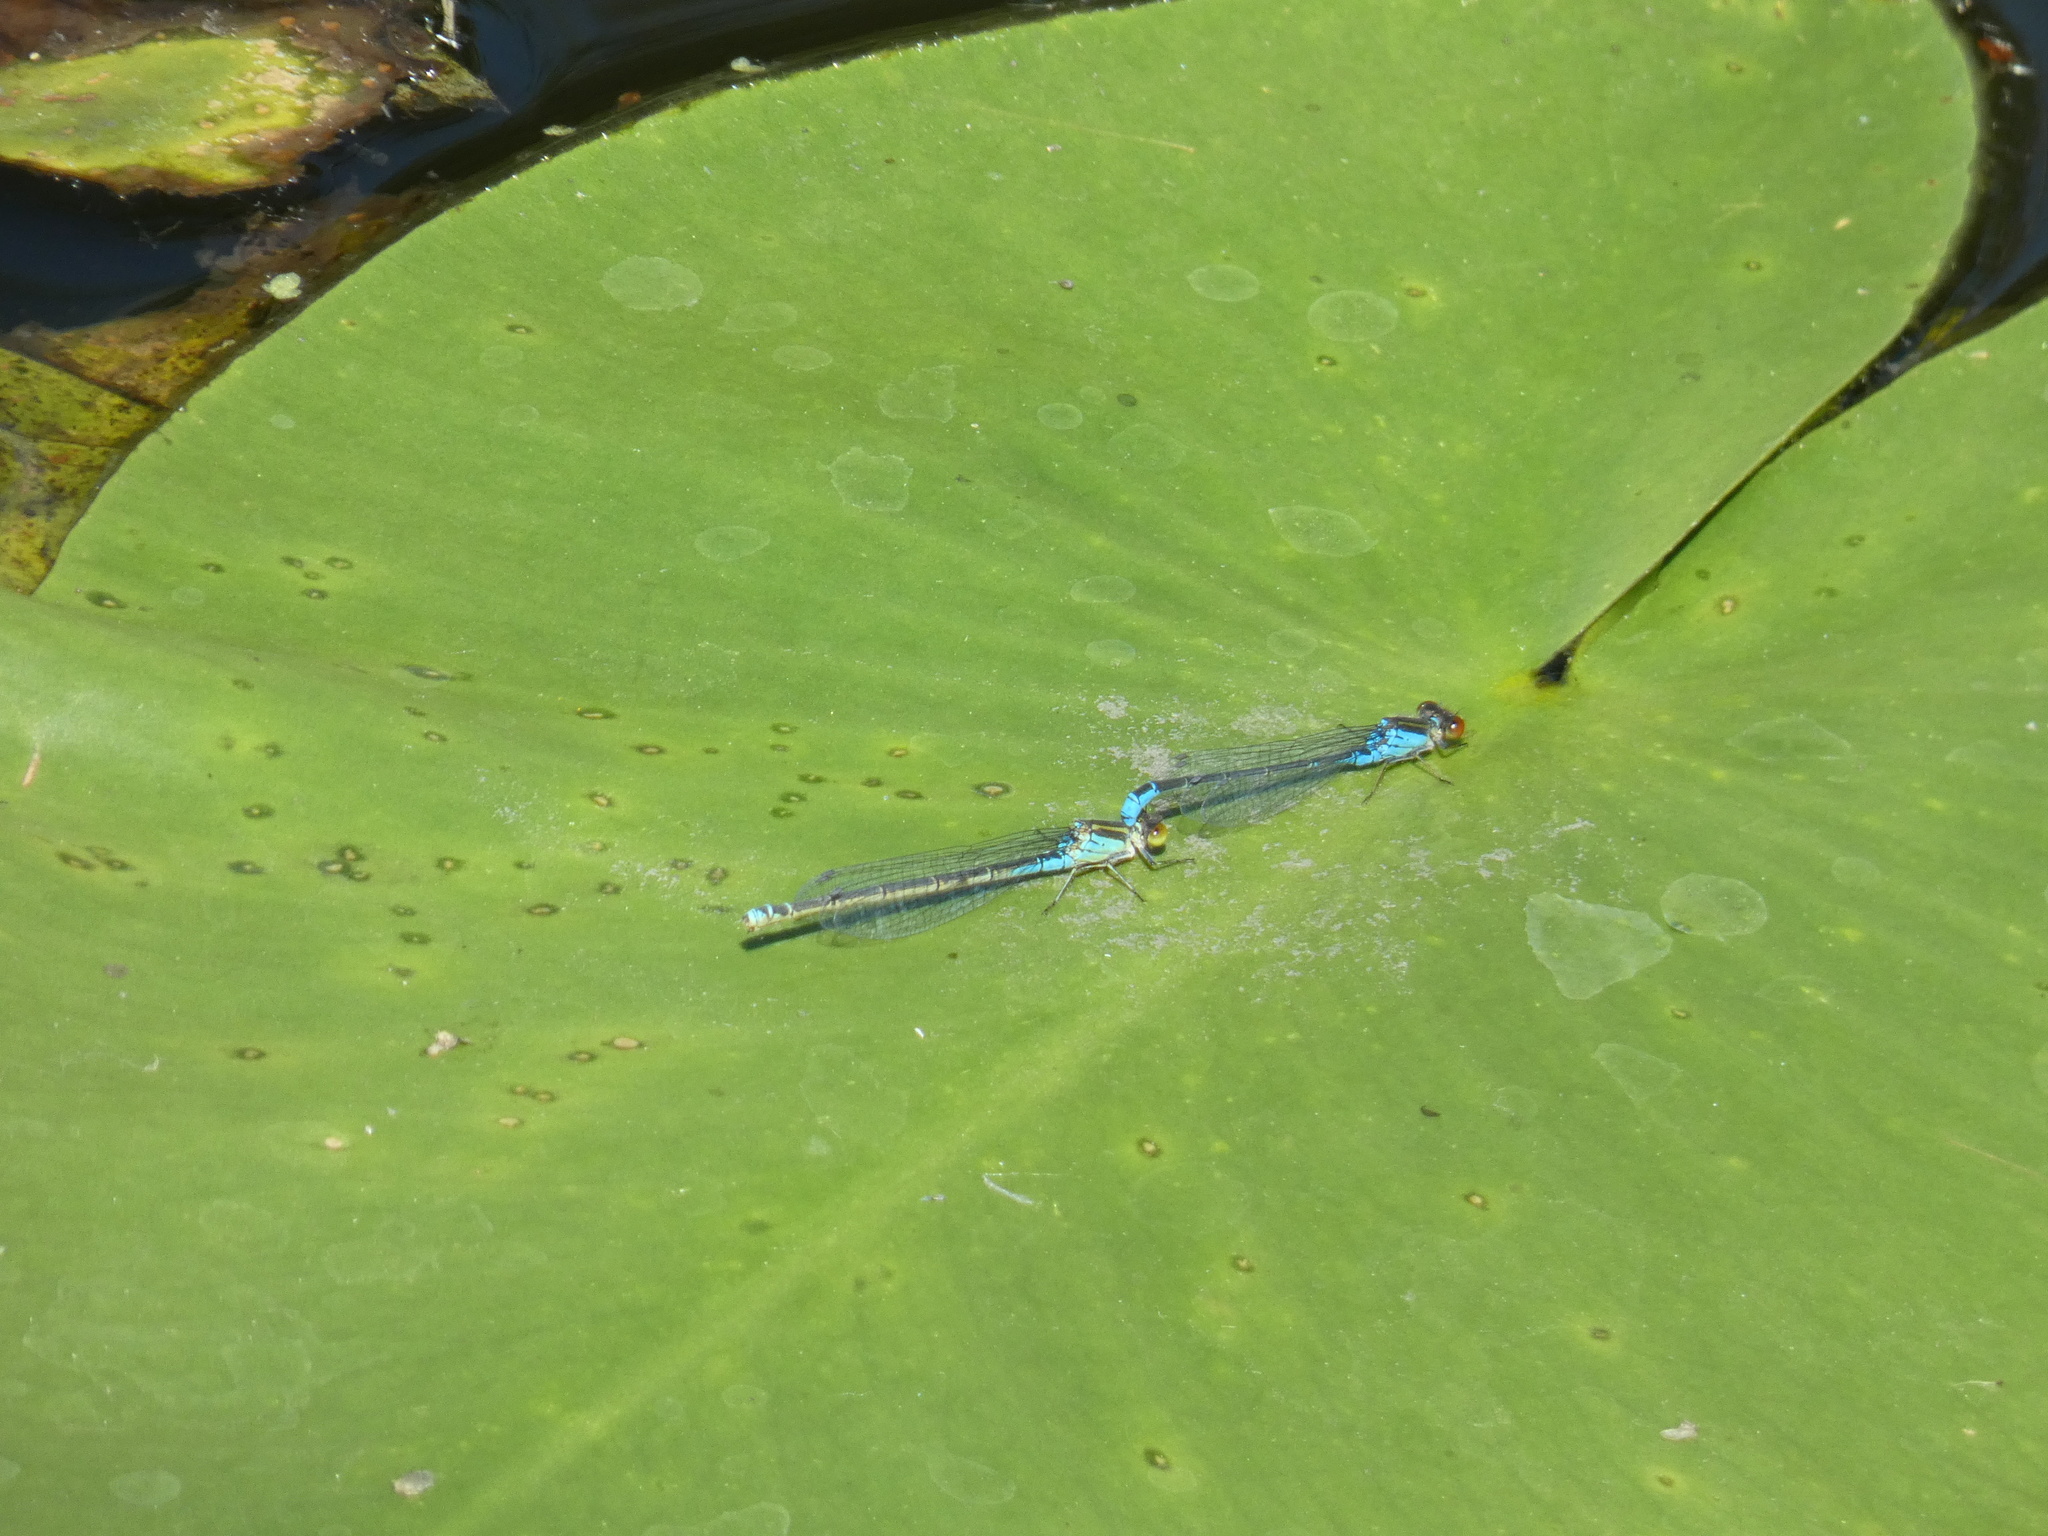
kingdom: Animalia
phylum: Arthropoda
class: Insecta
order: Odonata
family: Coenagrionidae
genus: Erythromma
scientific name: Erythromma viridulum
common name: Small red-eyed damselfly
